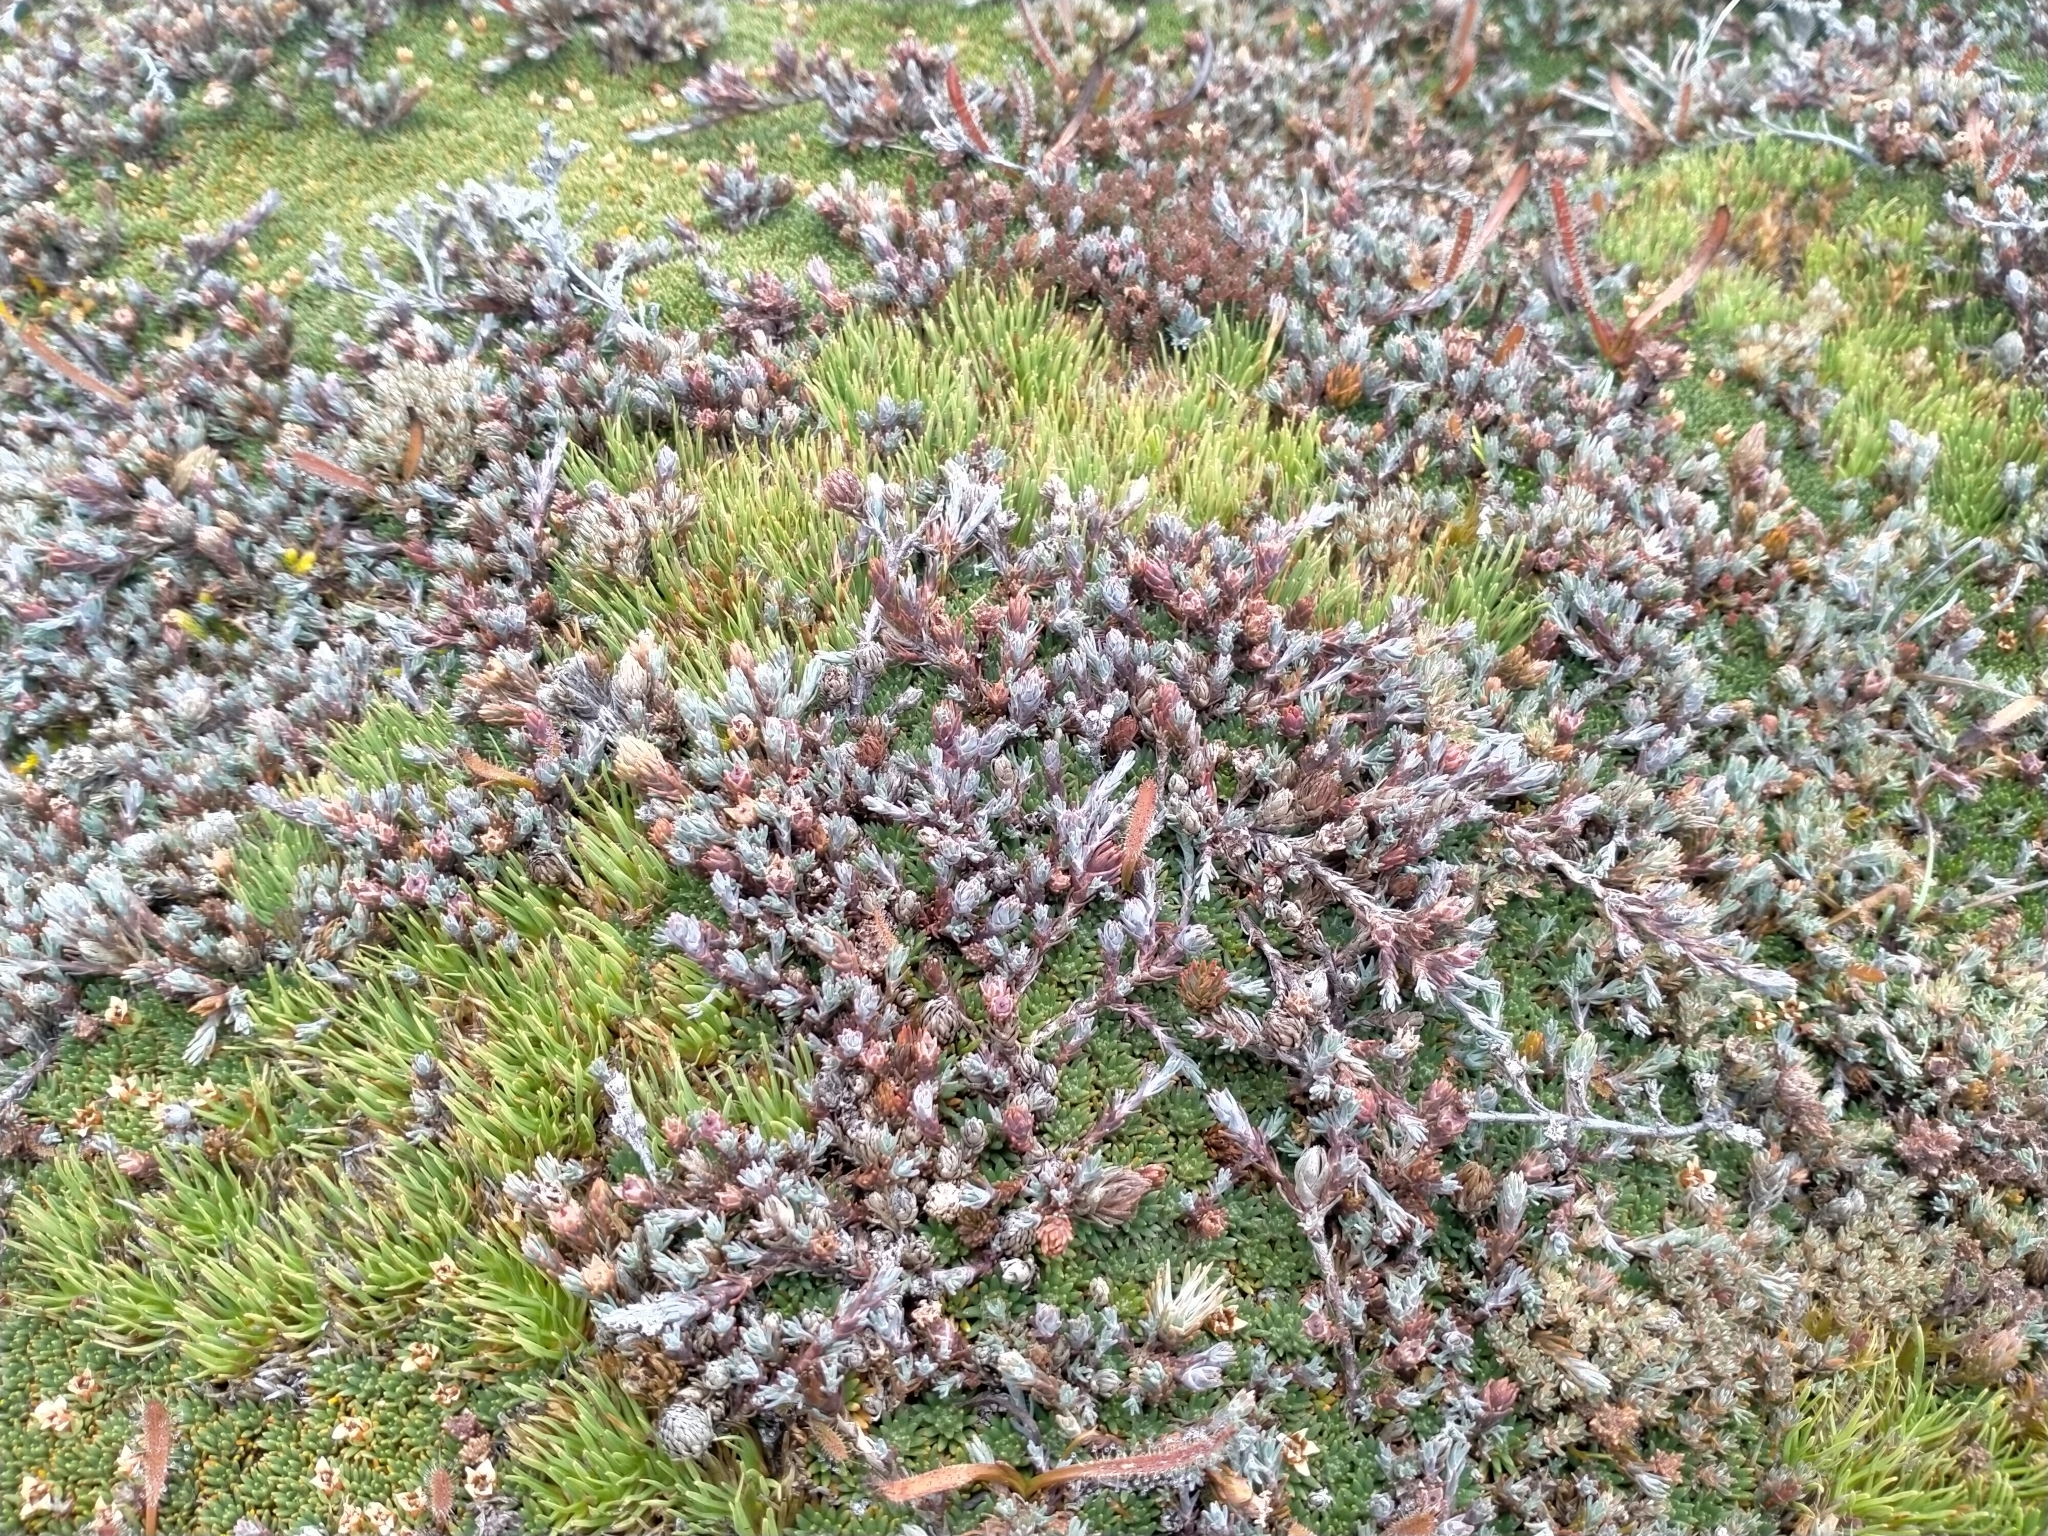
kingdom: Plantae
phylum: Tracheophyta
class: Magnoliopsida
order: Ericales
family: Ericaceae
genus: Dracophyllum
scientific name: Dracophyllum prostratum
